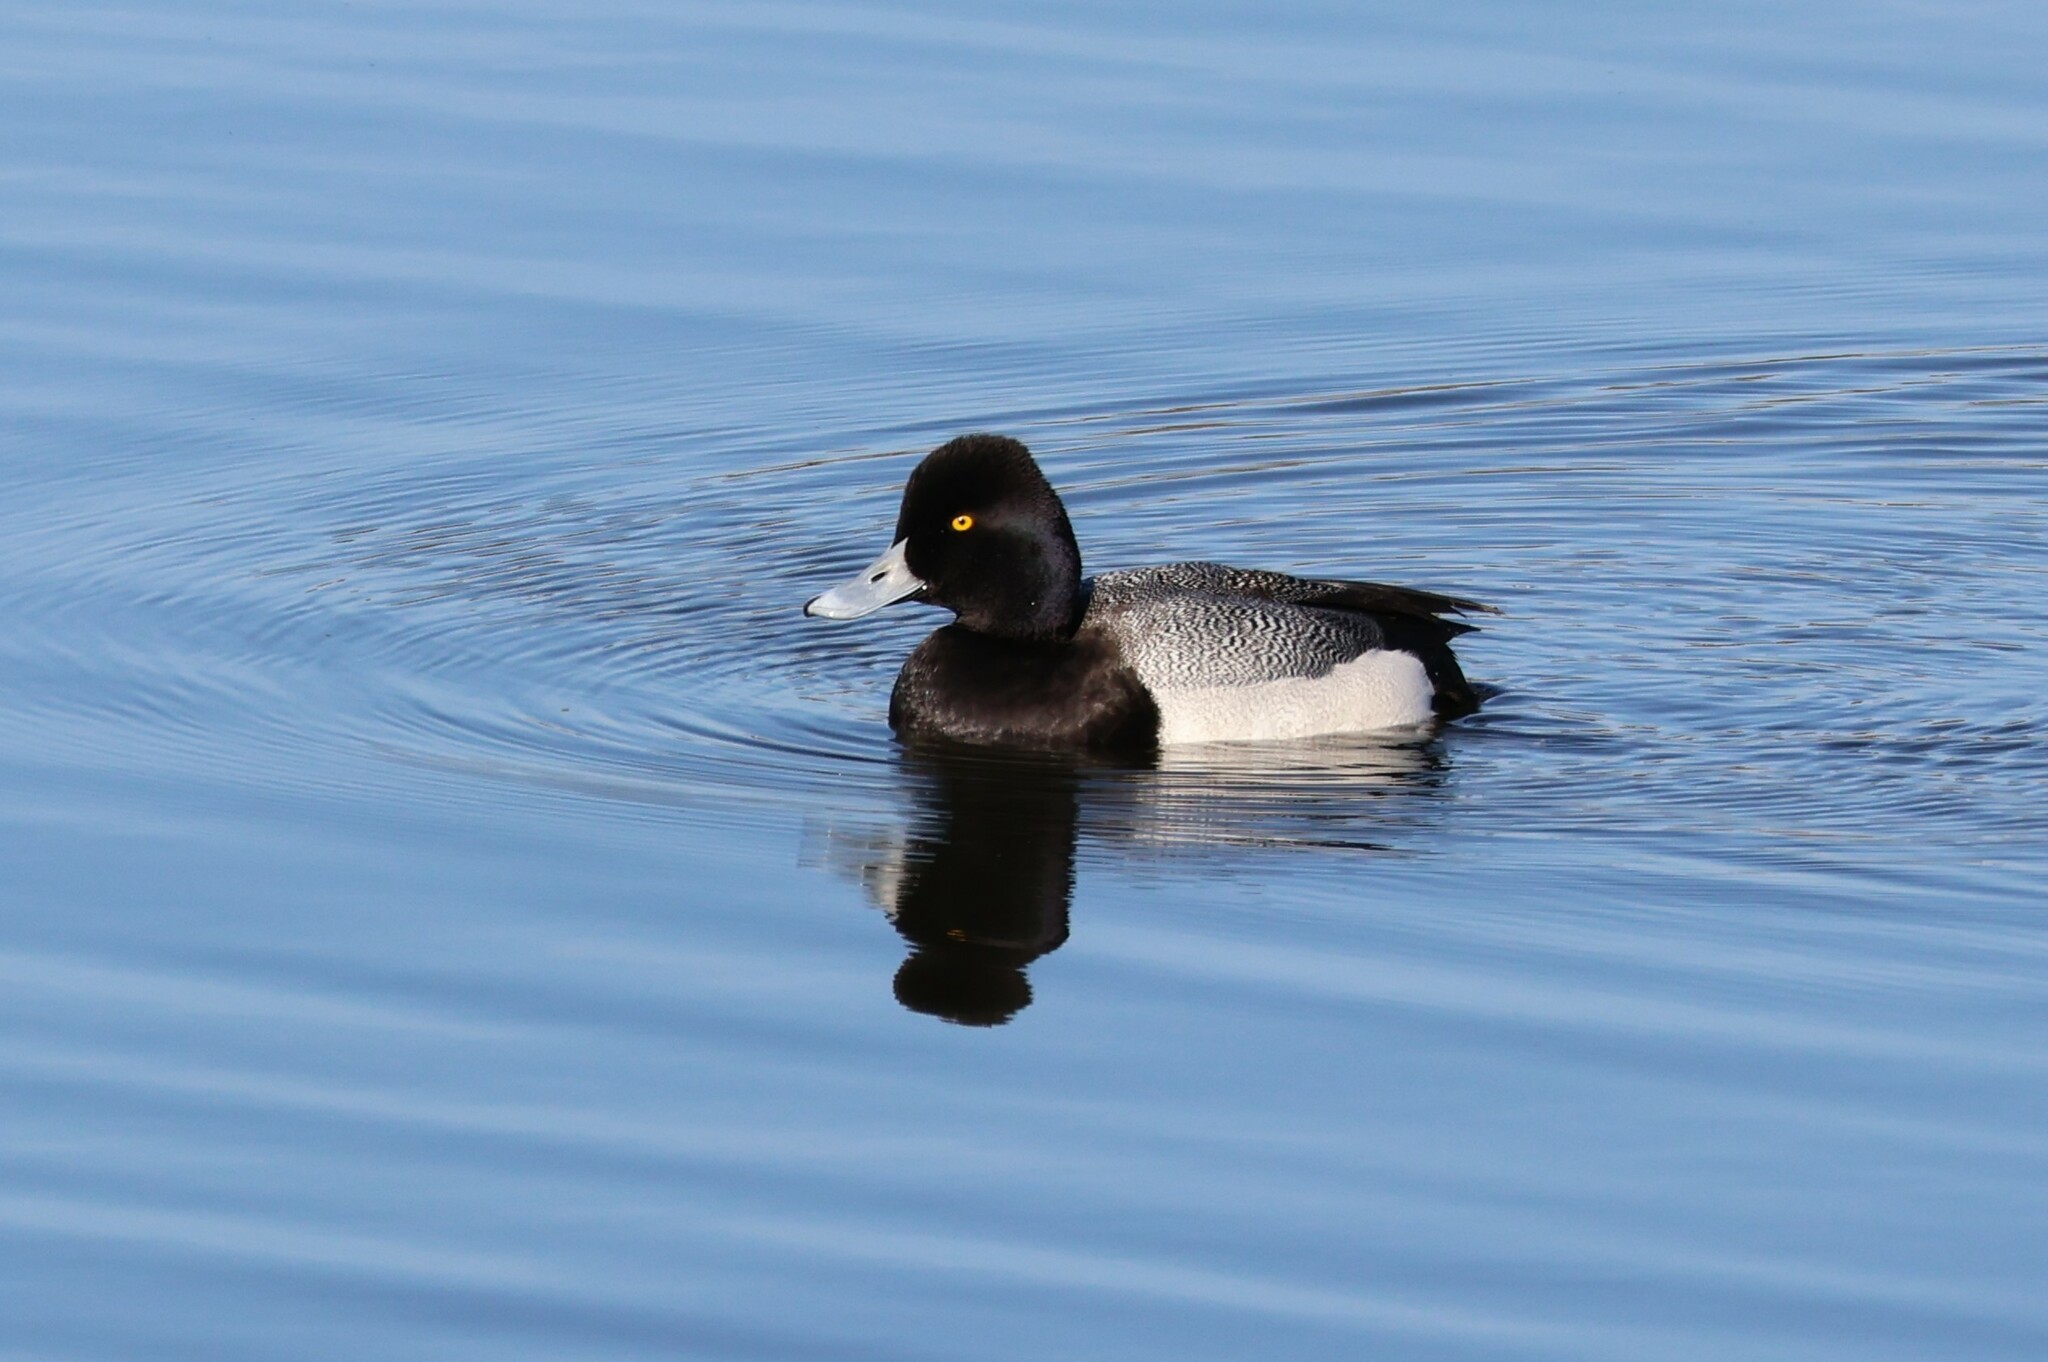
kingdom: Animalia
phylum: Chordata
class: Aves
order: Anseriformes
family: Anatidae
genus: Aythya
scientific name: Aythya affinis
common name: Lesser scaup
